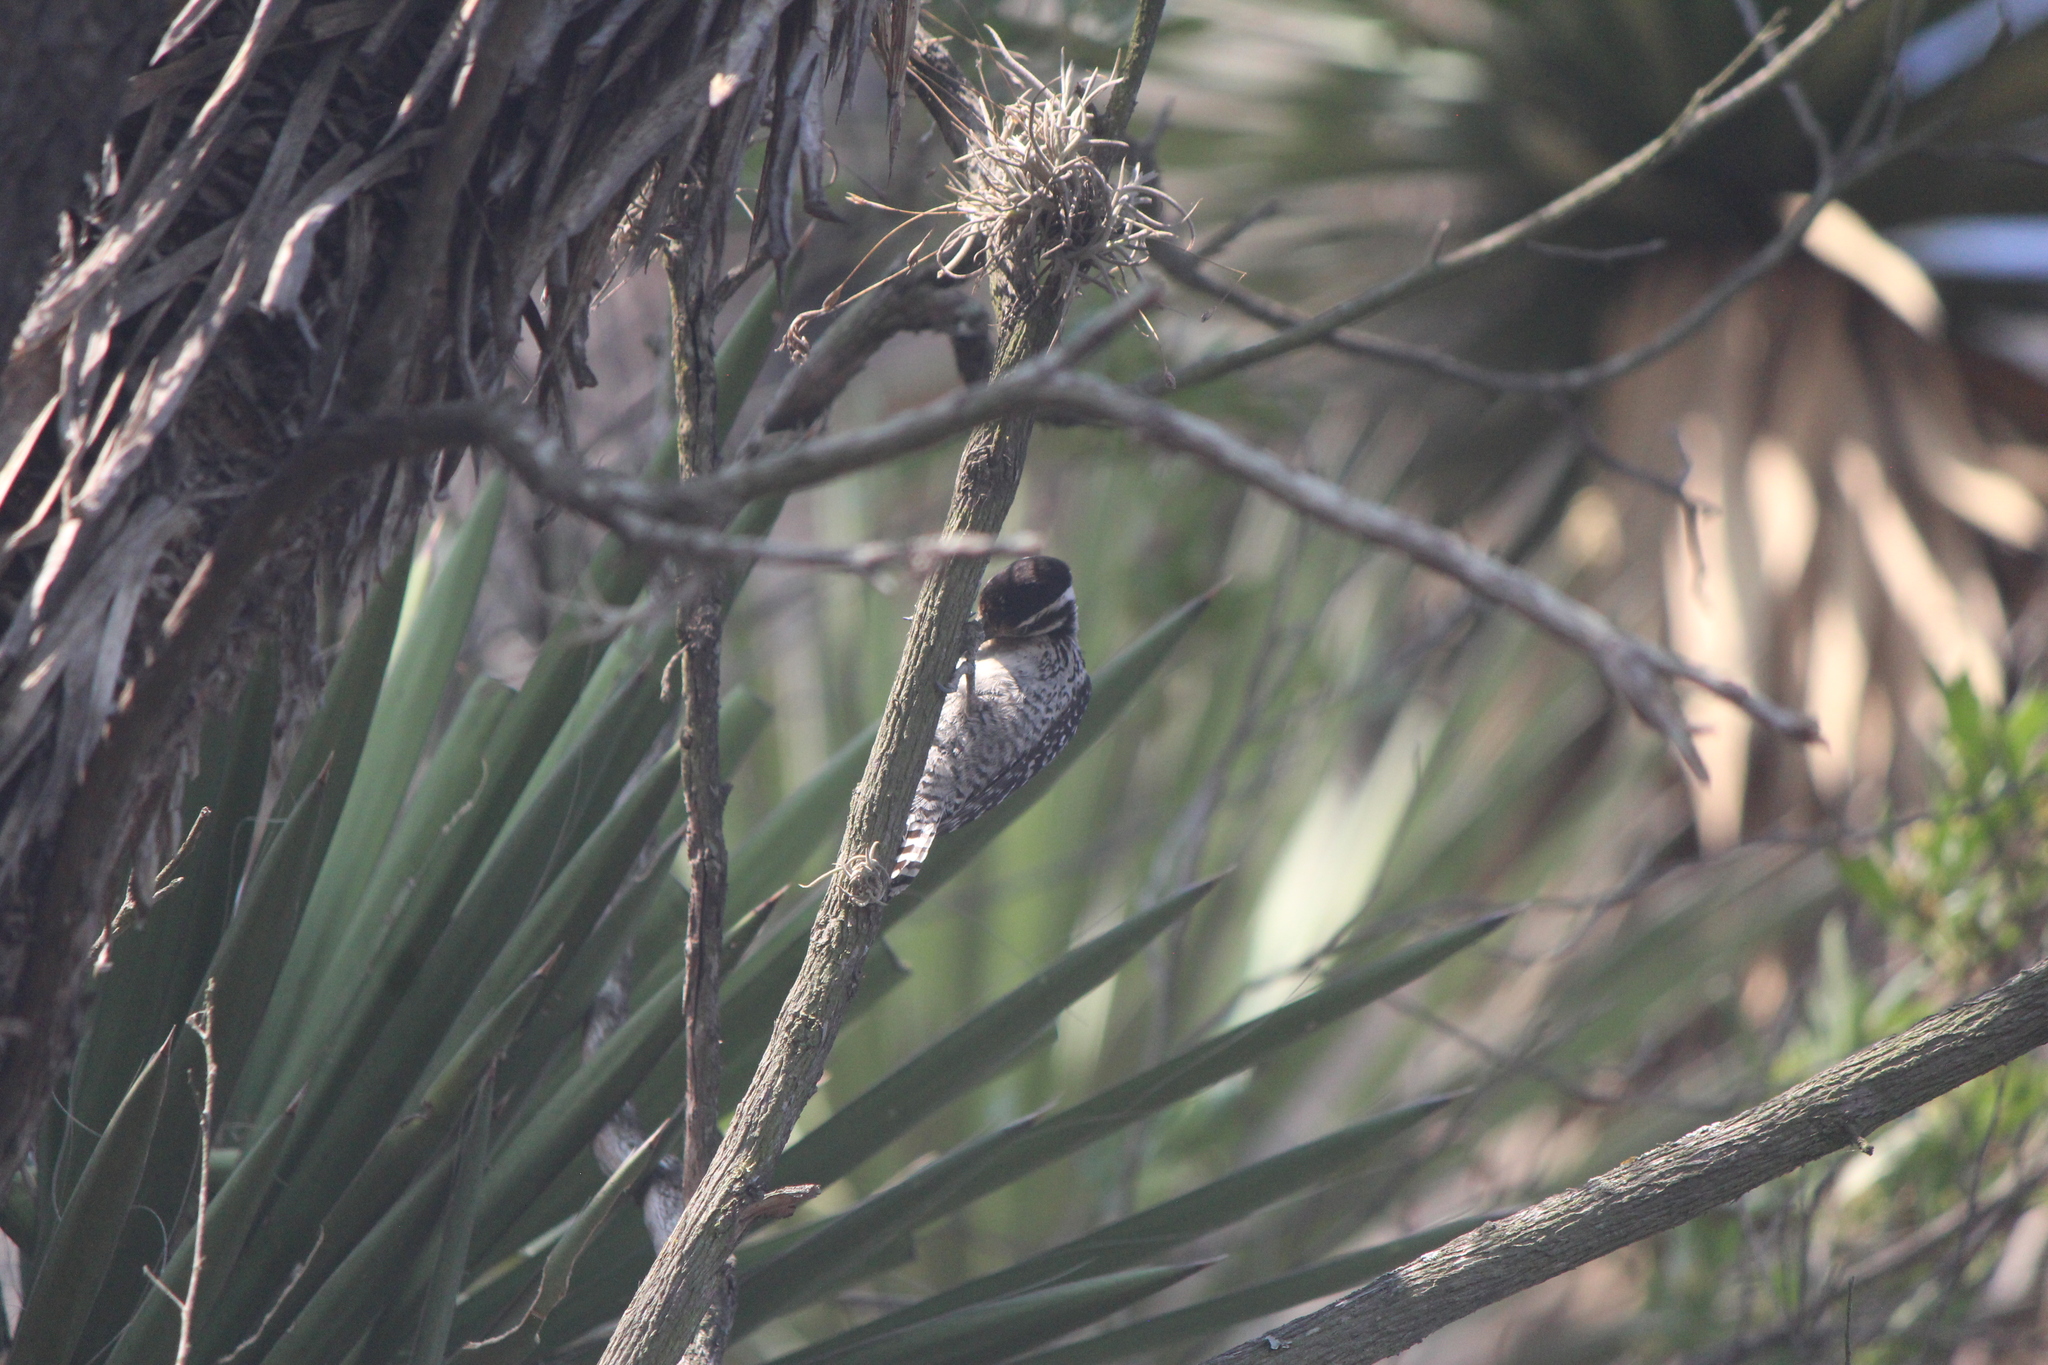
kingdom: Animalia
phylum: Chordata
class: Aves
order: Piciformes
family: Picidae
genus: Dryobates
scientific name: Dryobates scalaris
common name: Ladder-backed woodpecker
